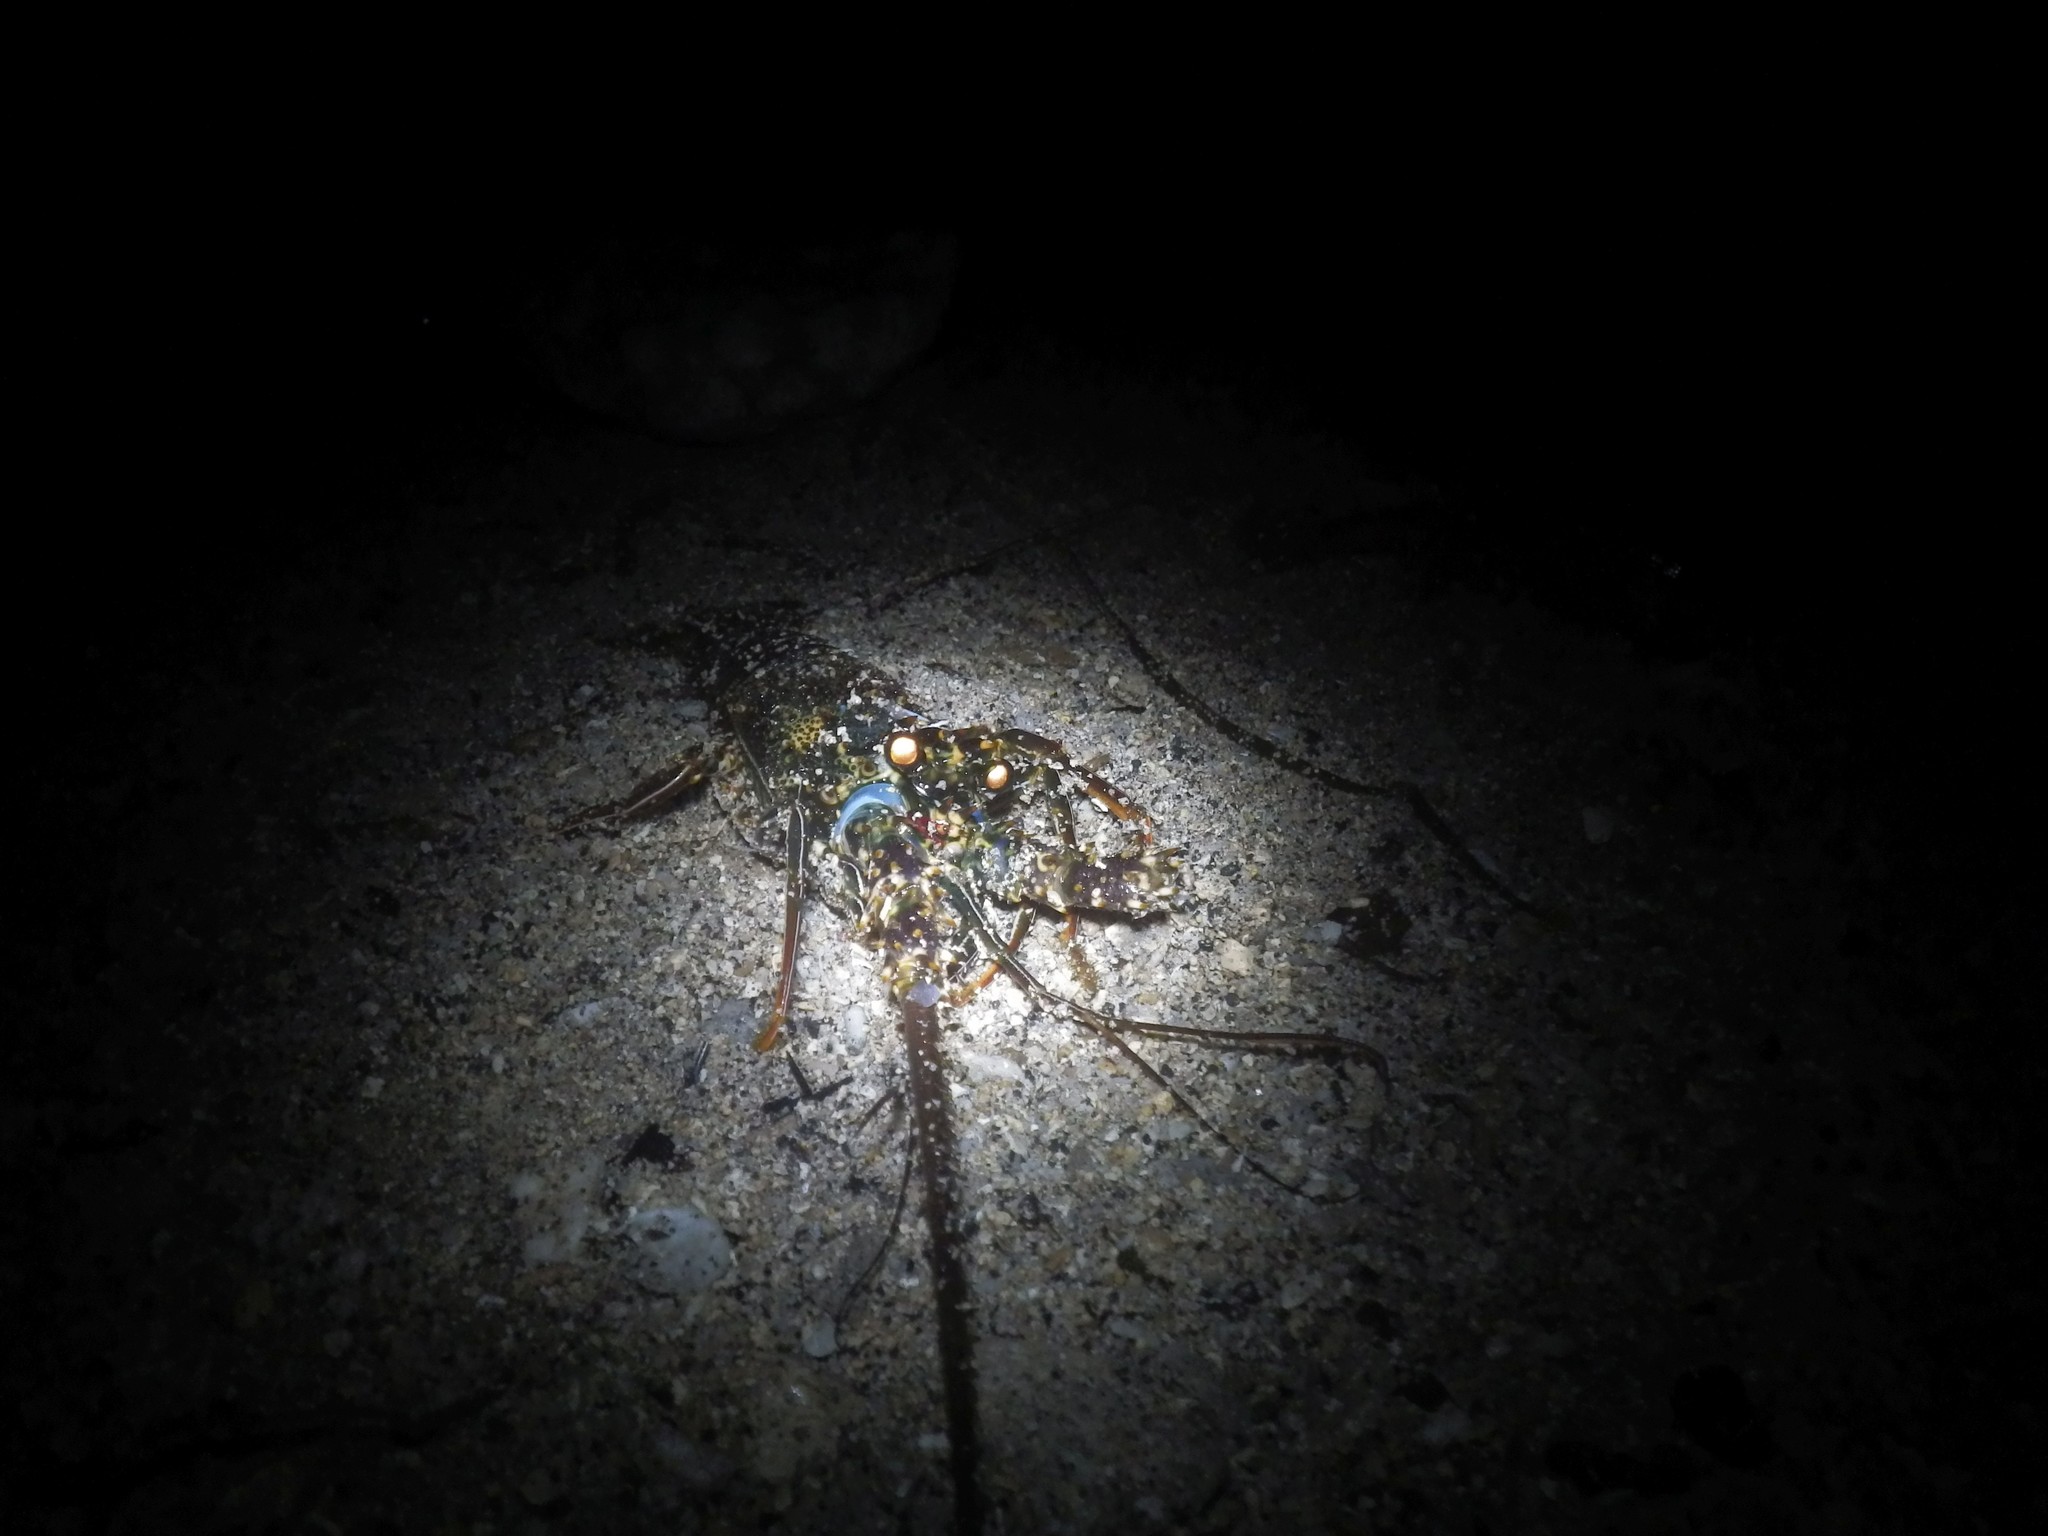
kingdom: Animalia
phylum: Arthropoda
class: Malacostraca
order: Decapoda
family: Palinuridae
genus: Panulirus
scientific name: Panulirus penicillatus
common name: Pronghorn spiny lobster
